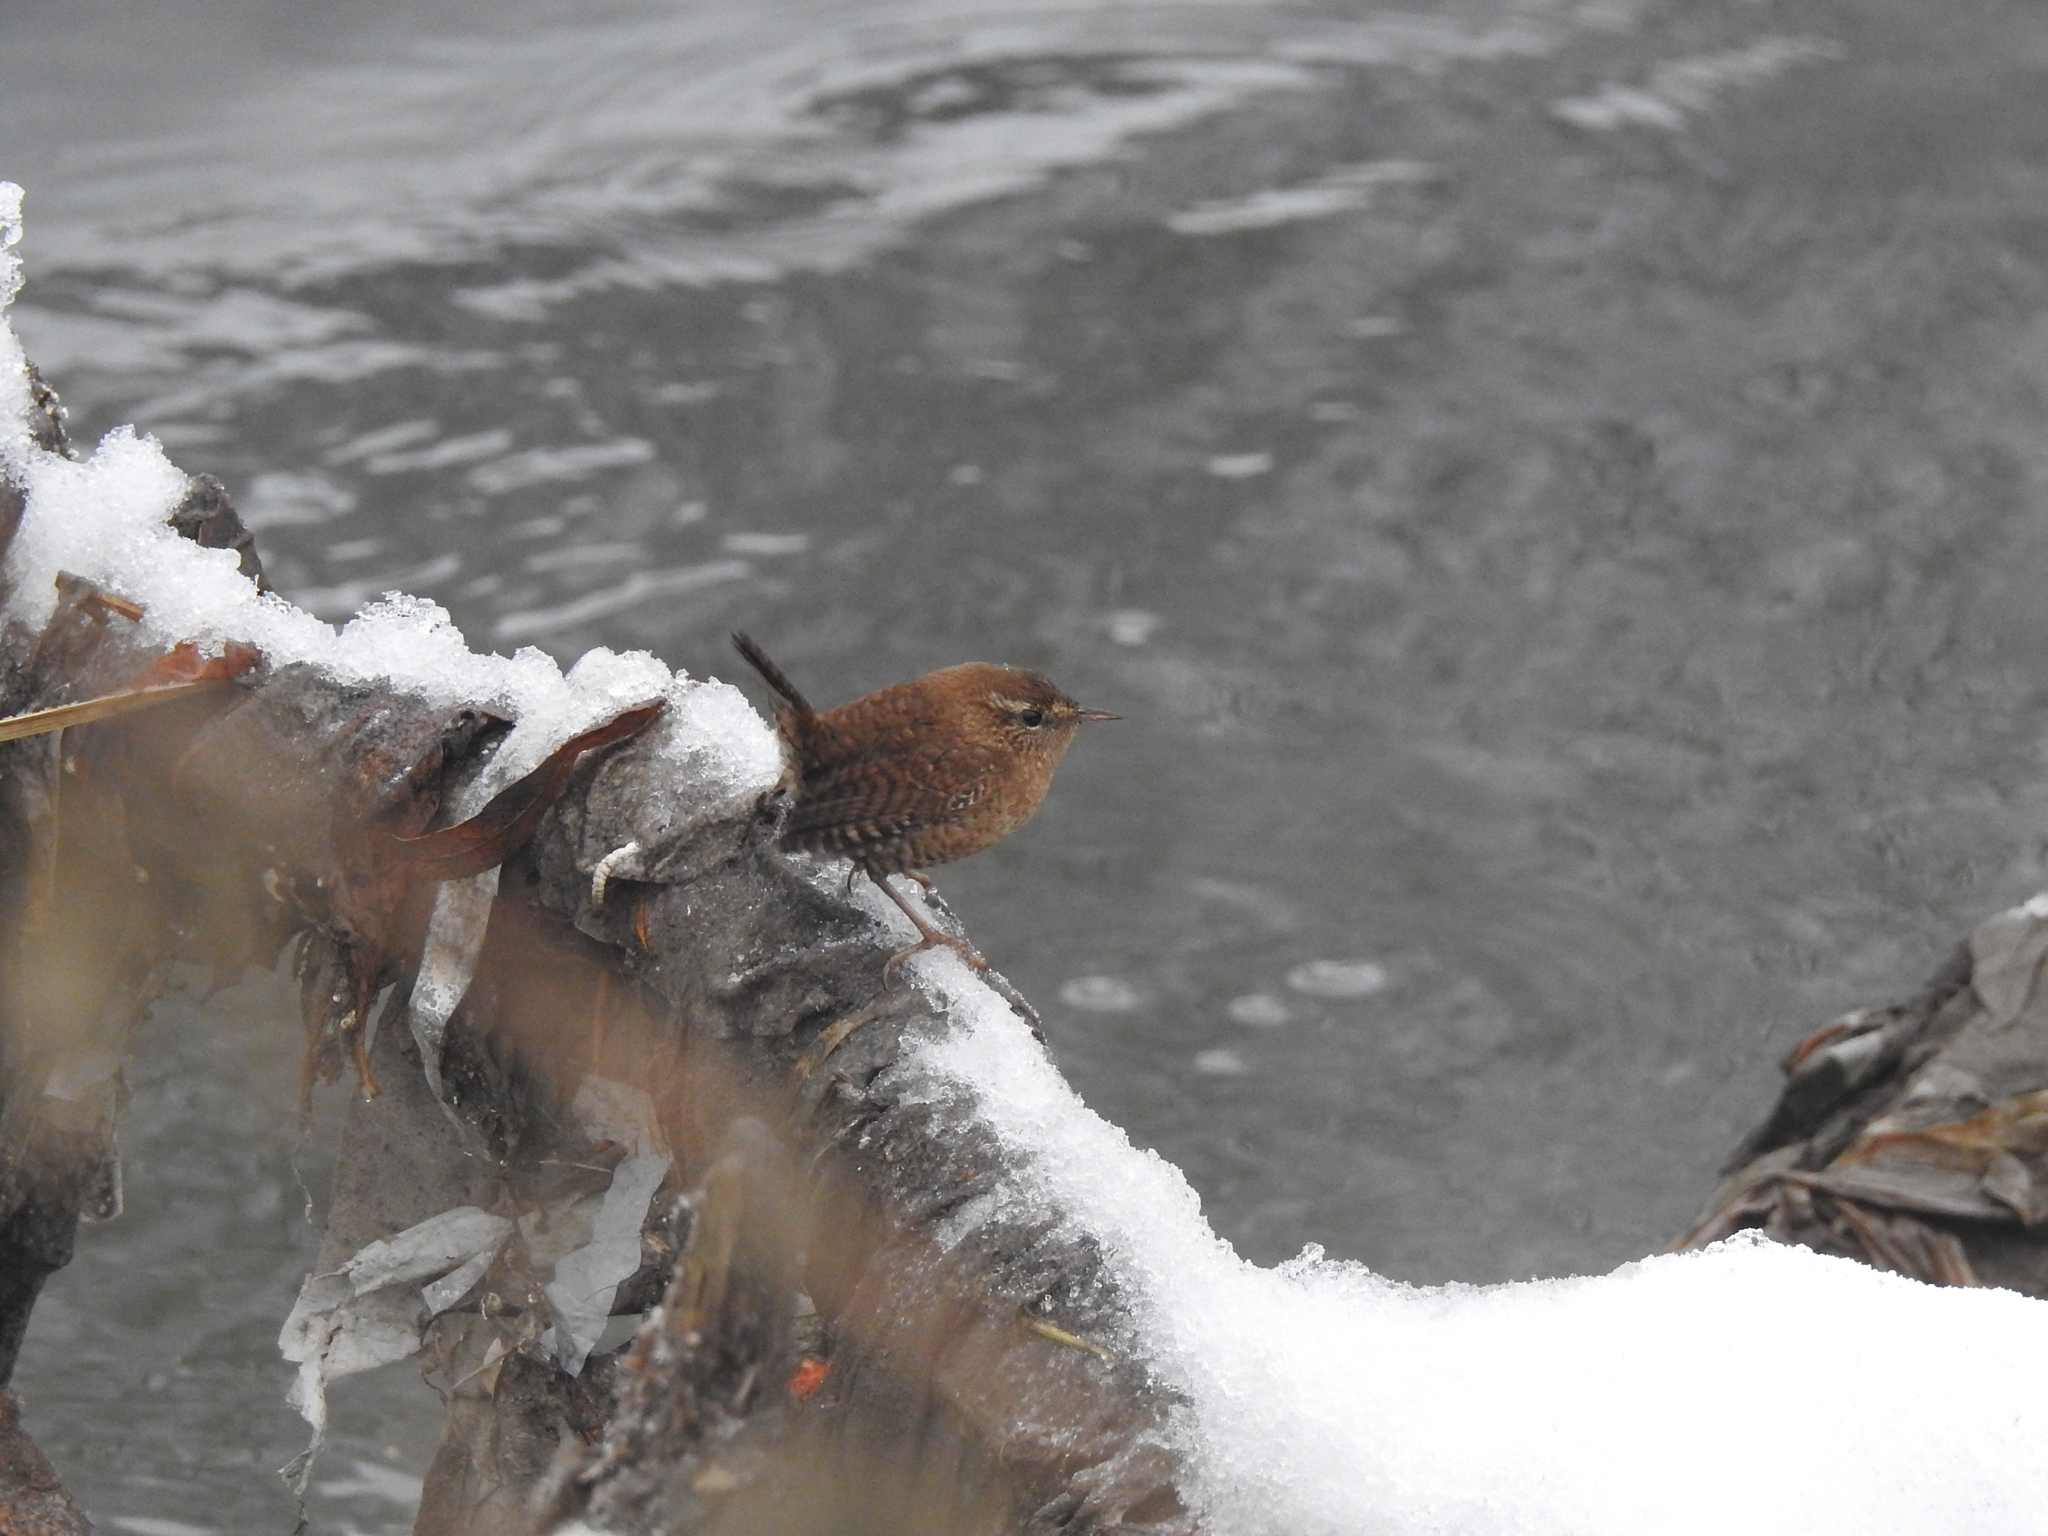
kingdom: Animalia
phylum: Chordata
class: Aves
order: Passeriformes
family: Troglodytidae
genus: Troglodytes
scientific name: Troglodytes troglodytes
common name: Eurasian wren
